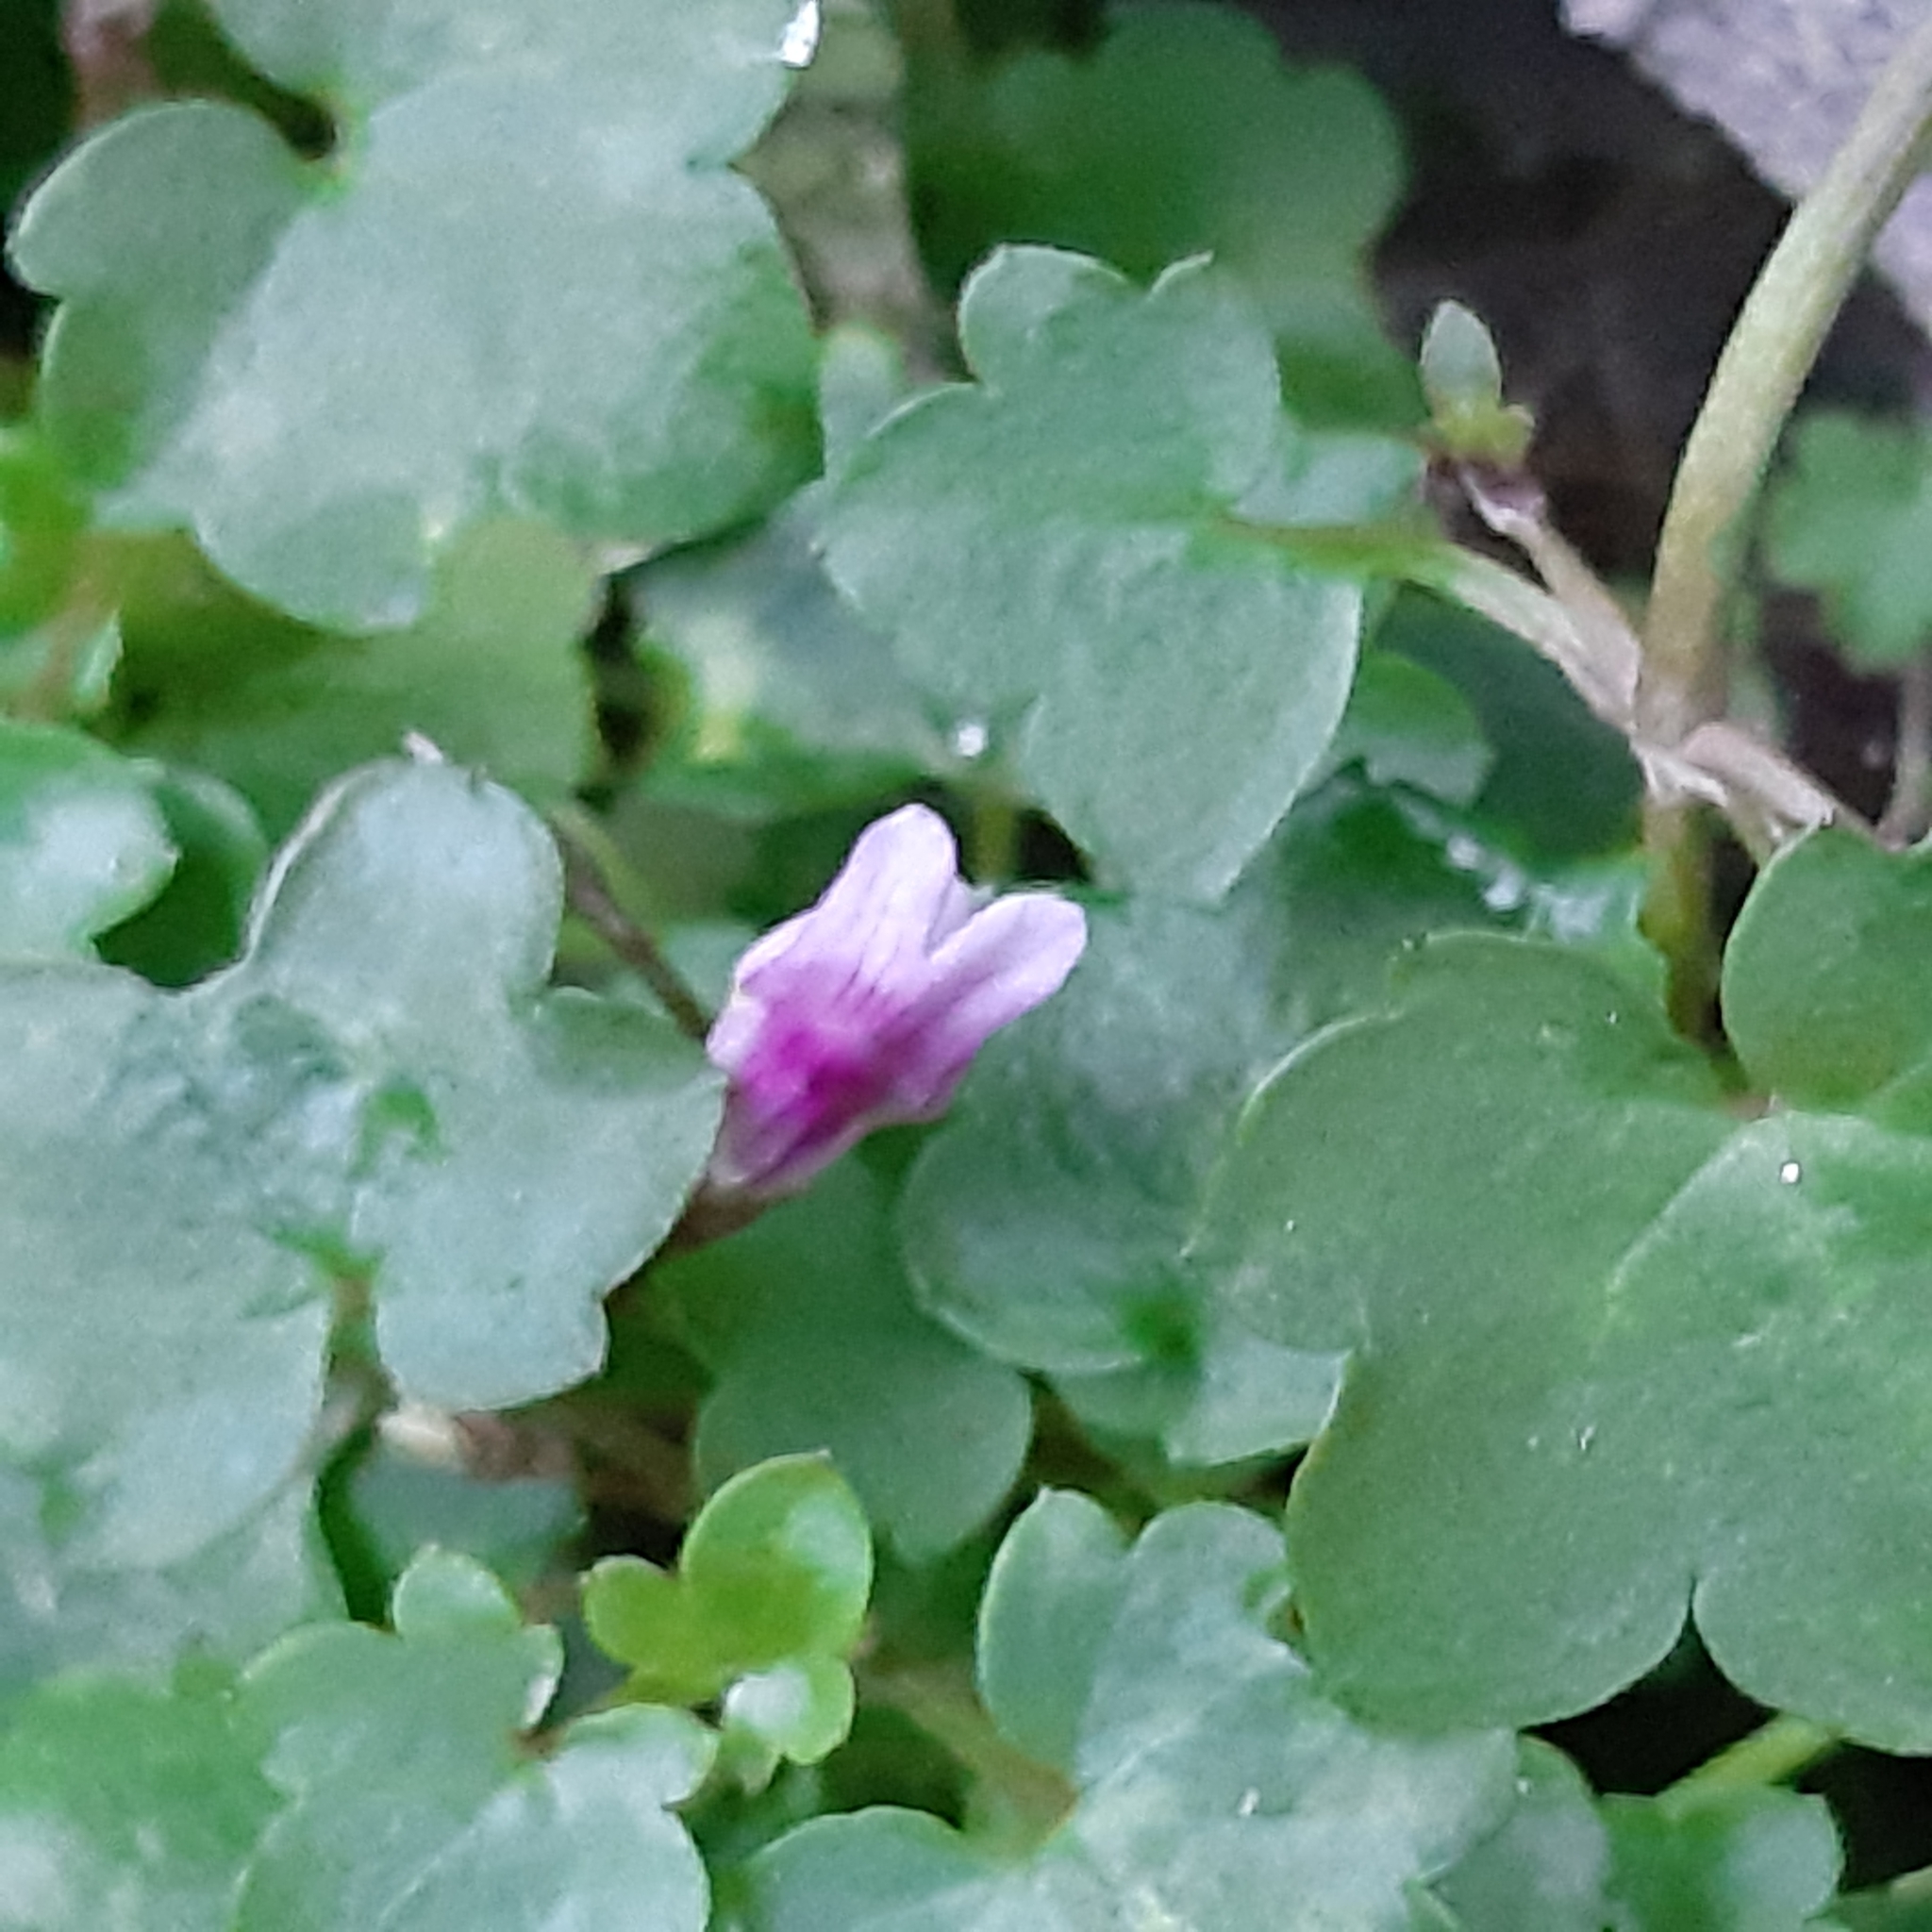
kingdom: Plantae
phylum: Tracheophyta
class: Magnoliopsida
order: Lamiales
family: Plantaginaceae
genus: Cymbalaria
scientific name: Cymbalaria muralis
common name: Ivy-leaved toadflax
